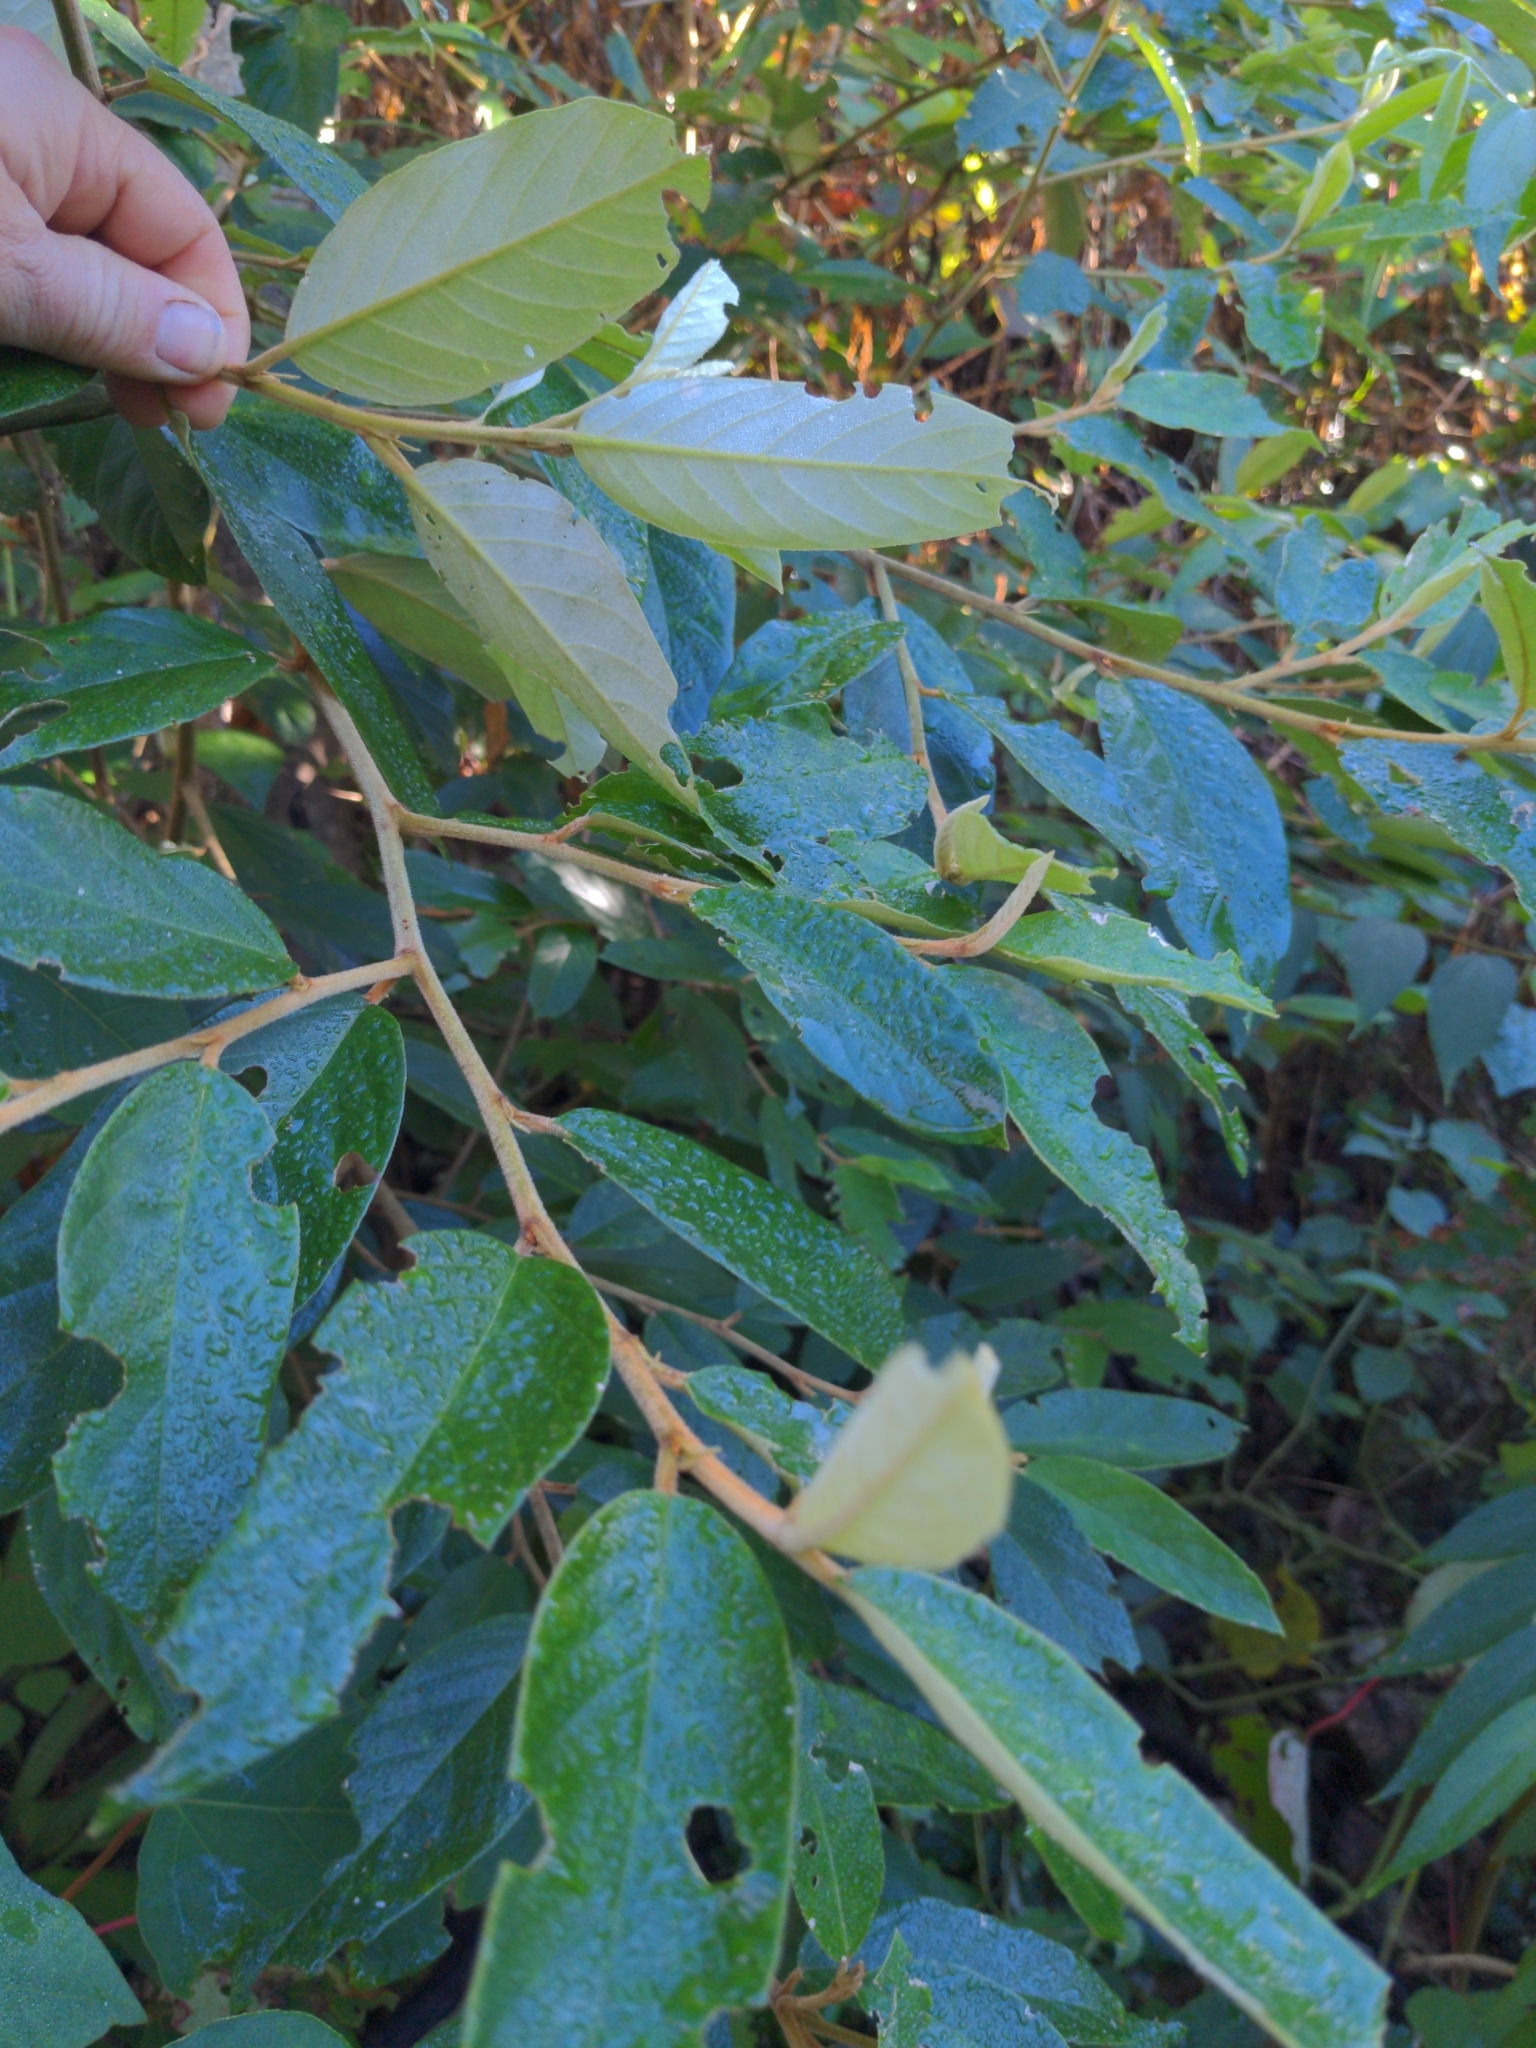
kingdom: Plantae
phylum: Tracheophyta
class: Magnoliopsida
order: Rosales
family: Rhamnaceae
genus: Alphitonia
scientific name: Alphitonia excelsa
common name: Red ash
